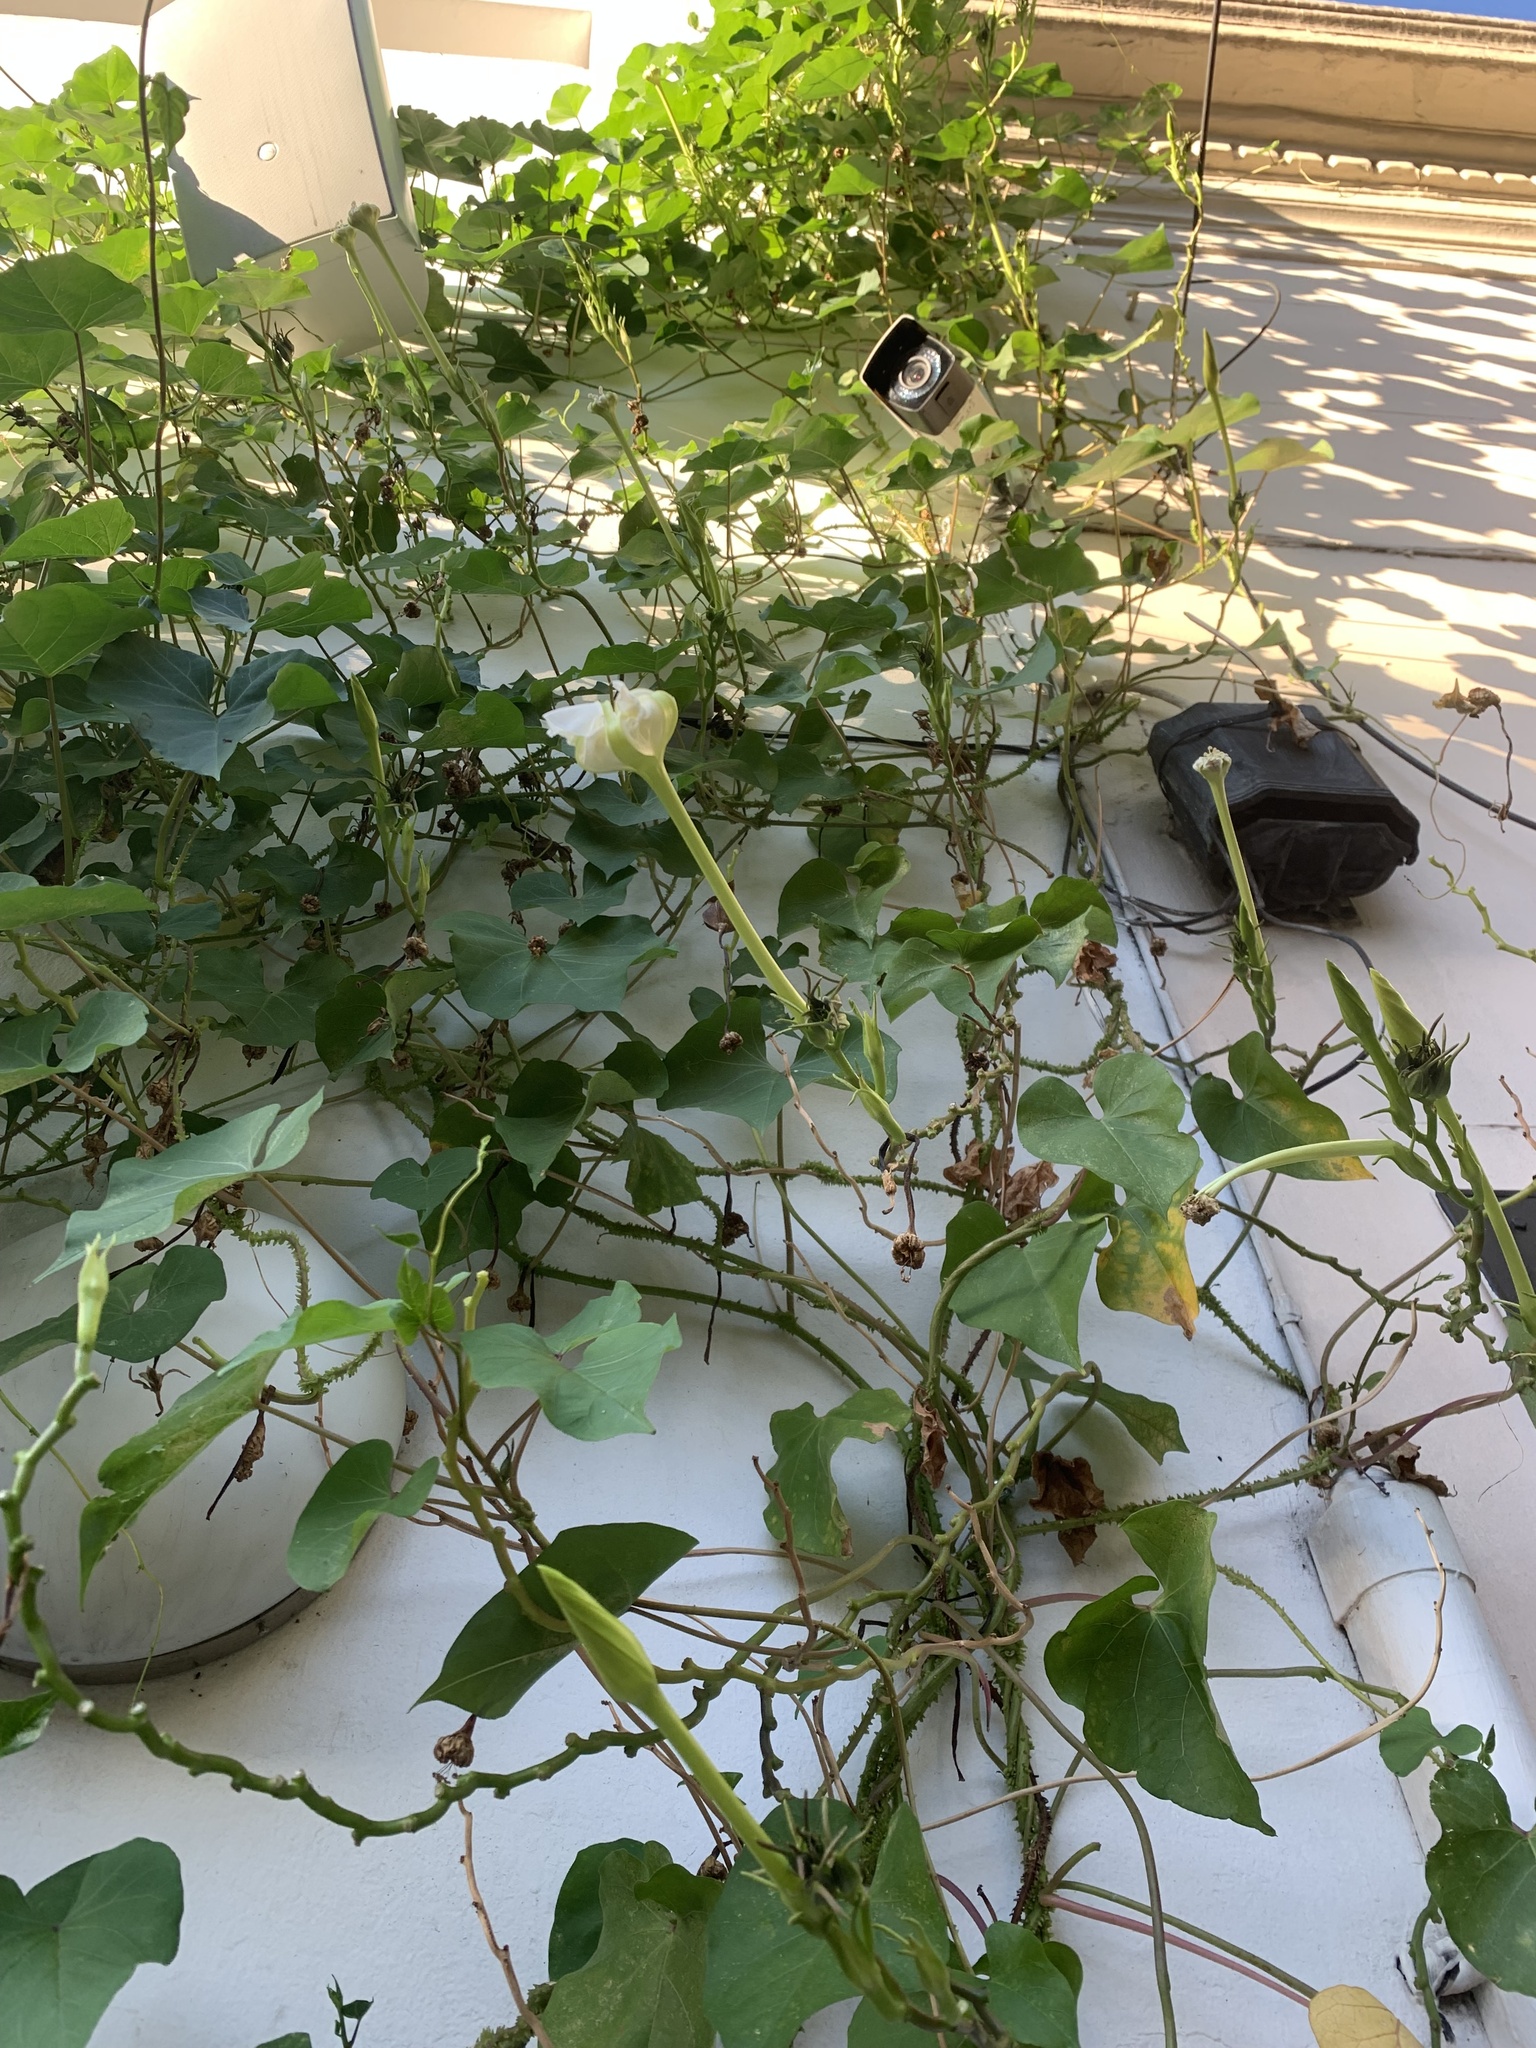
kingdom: Plantae
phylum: Tracheophyta
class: Magnoliopsida
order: Solanales
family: Convolvulaceae
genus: Ipomoea
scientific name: Ipomoea alba
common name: Moonflower
